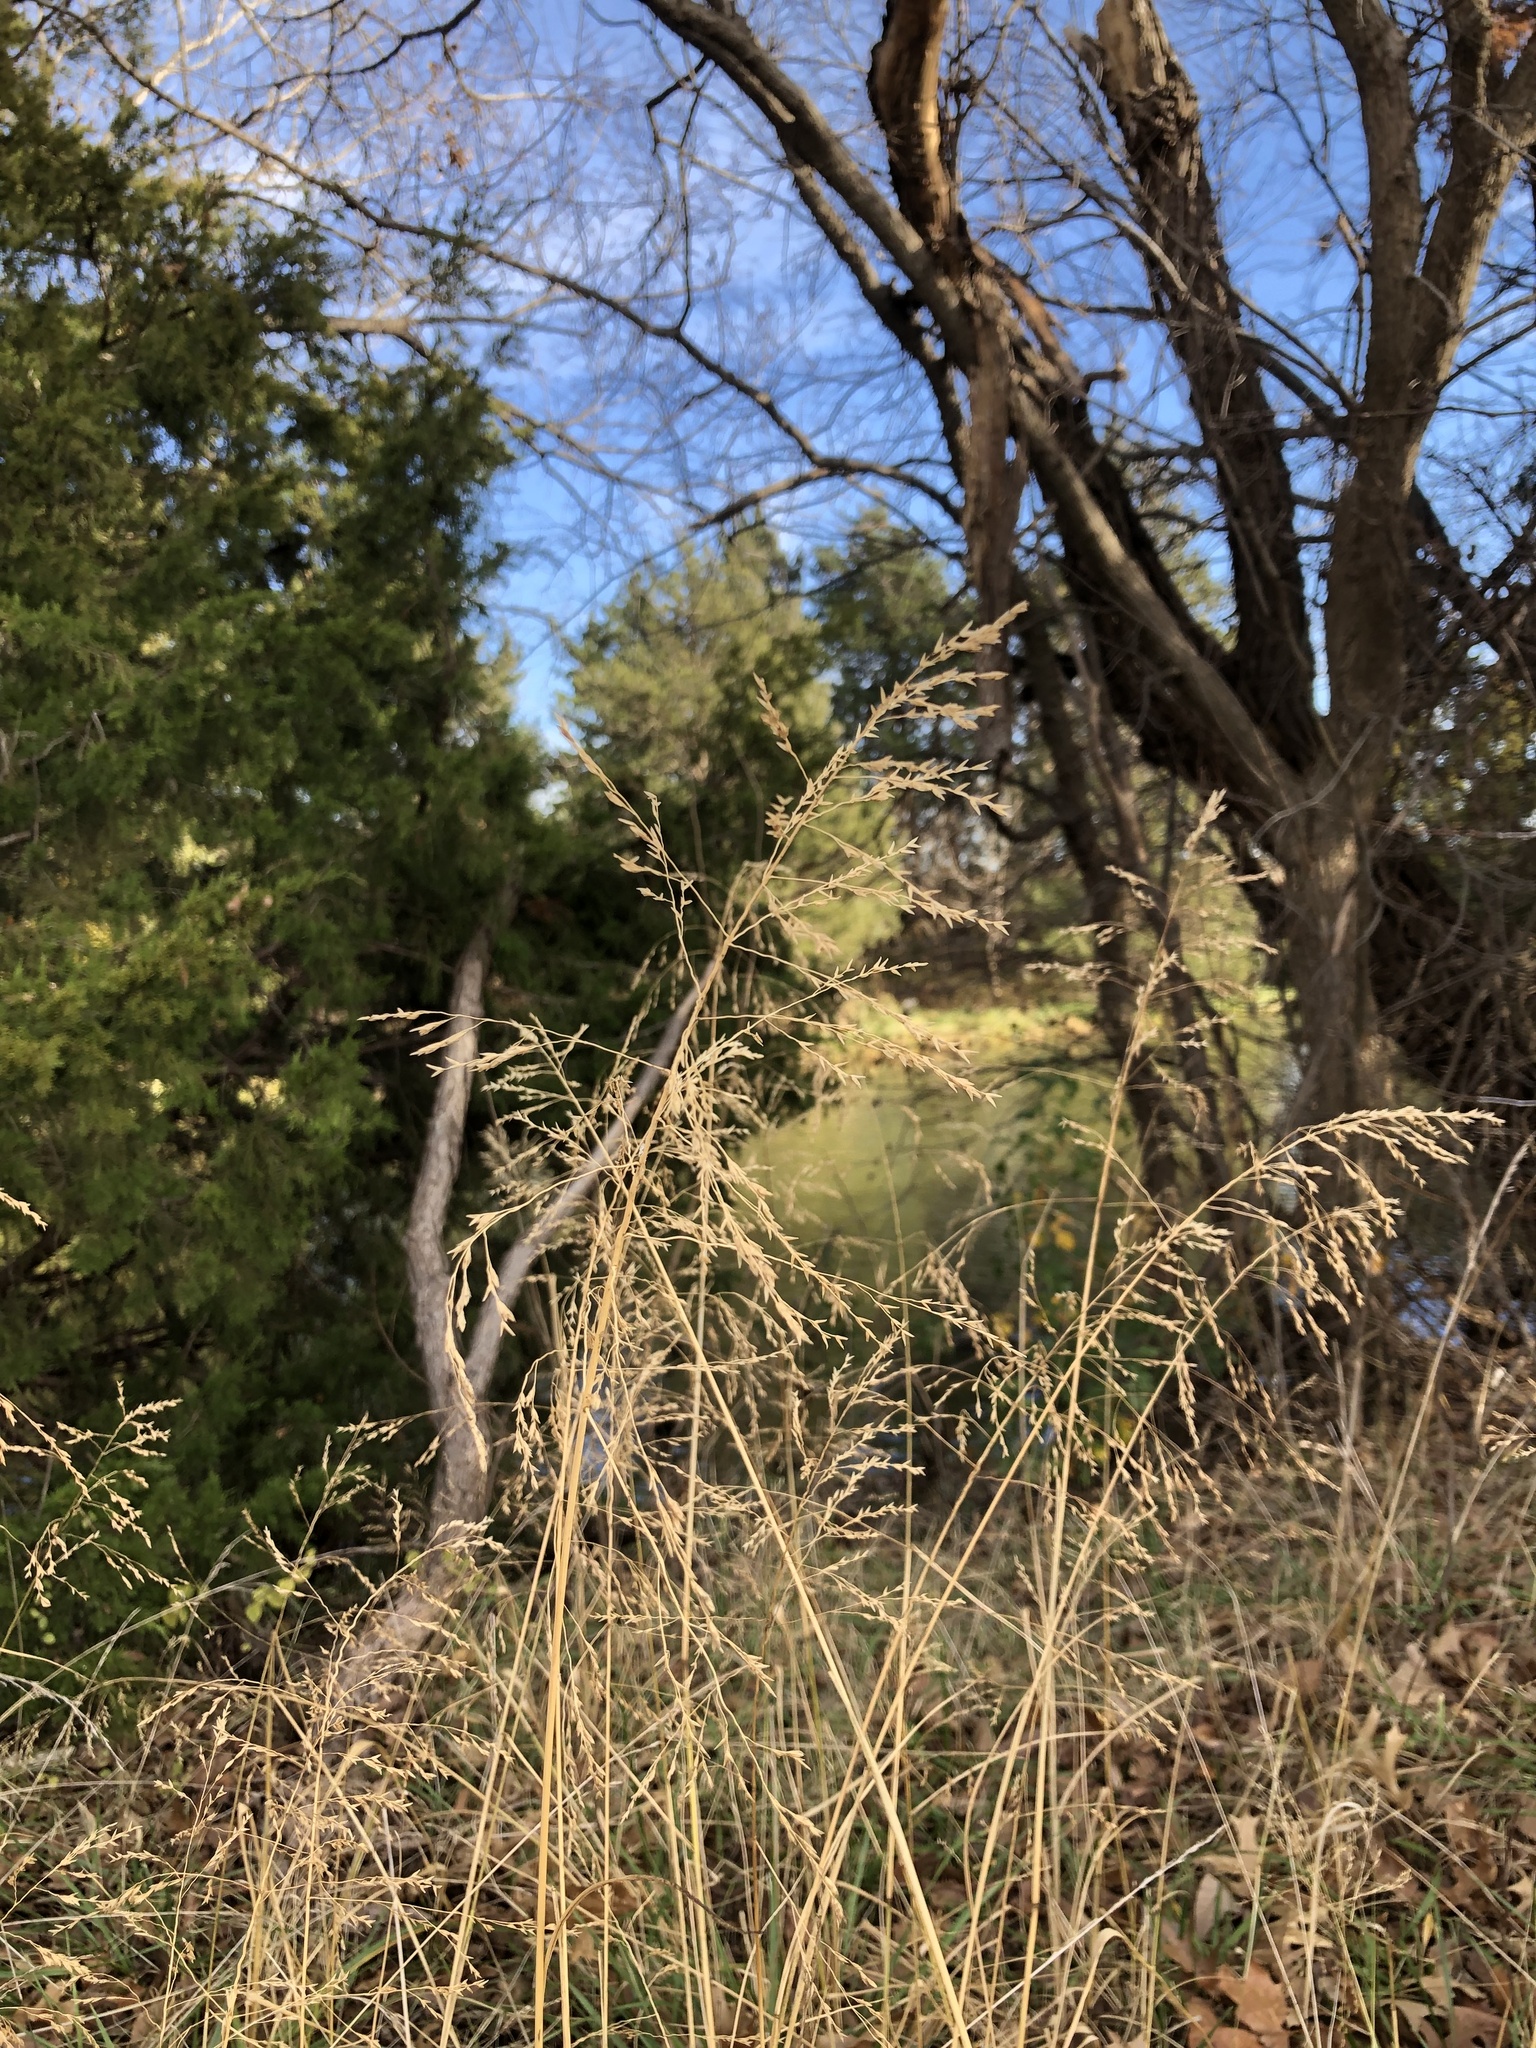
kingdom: Plantae
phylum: Tracheophyta
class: Liliopsida
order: Poales
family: Poaceae
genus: Tridens
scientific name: Tridens flavus
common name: Purpletop
